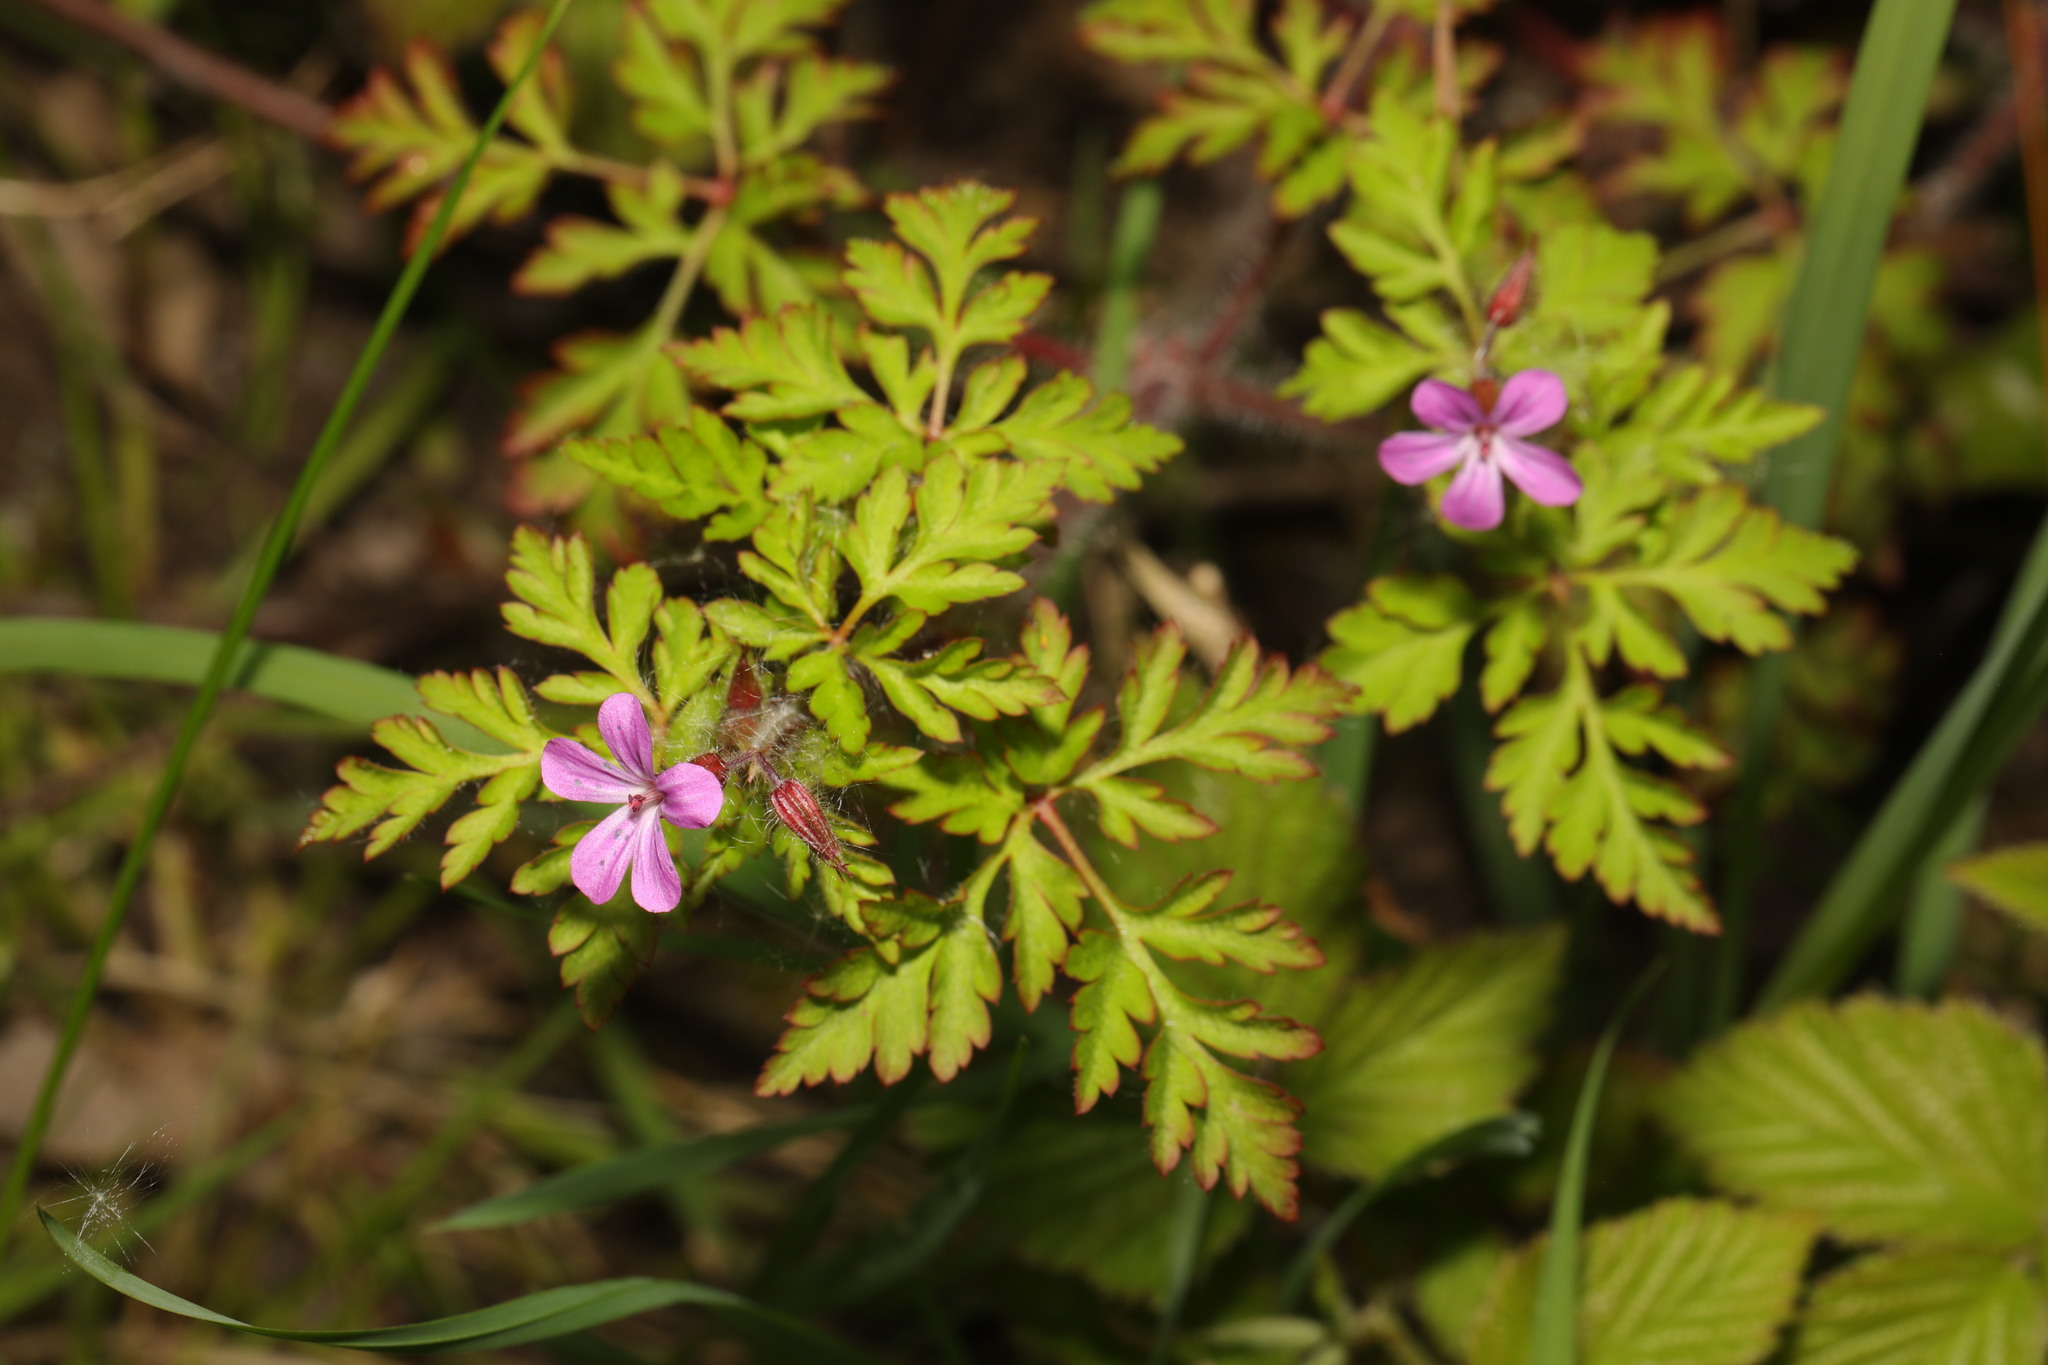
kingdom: Plantae
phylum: Tracheophyta
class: Magnoliopsida
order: Geraniales
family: Geraniaceae
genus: Geranium
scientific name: Geranium robertianum
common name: Herb-robert
